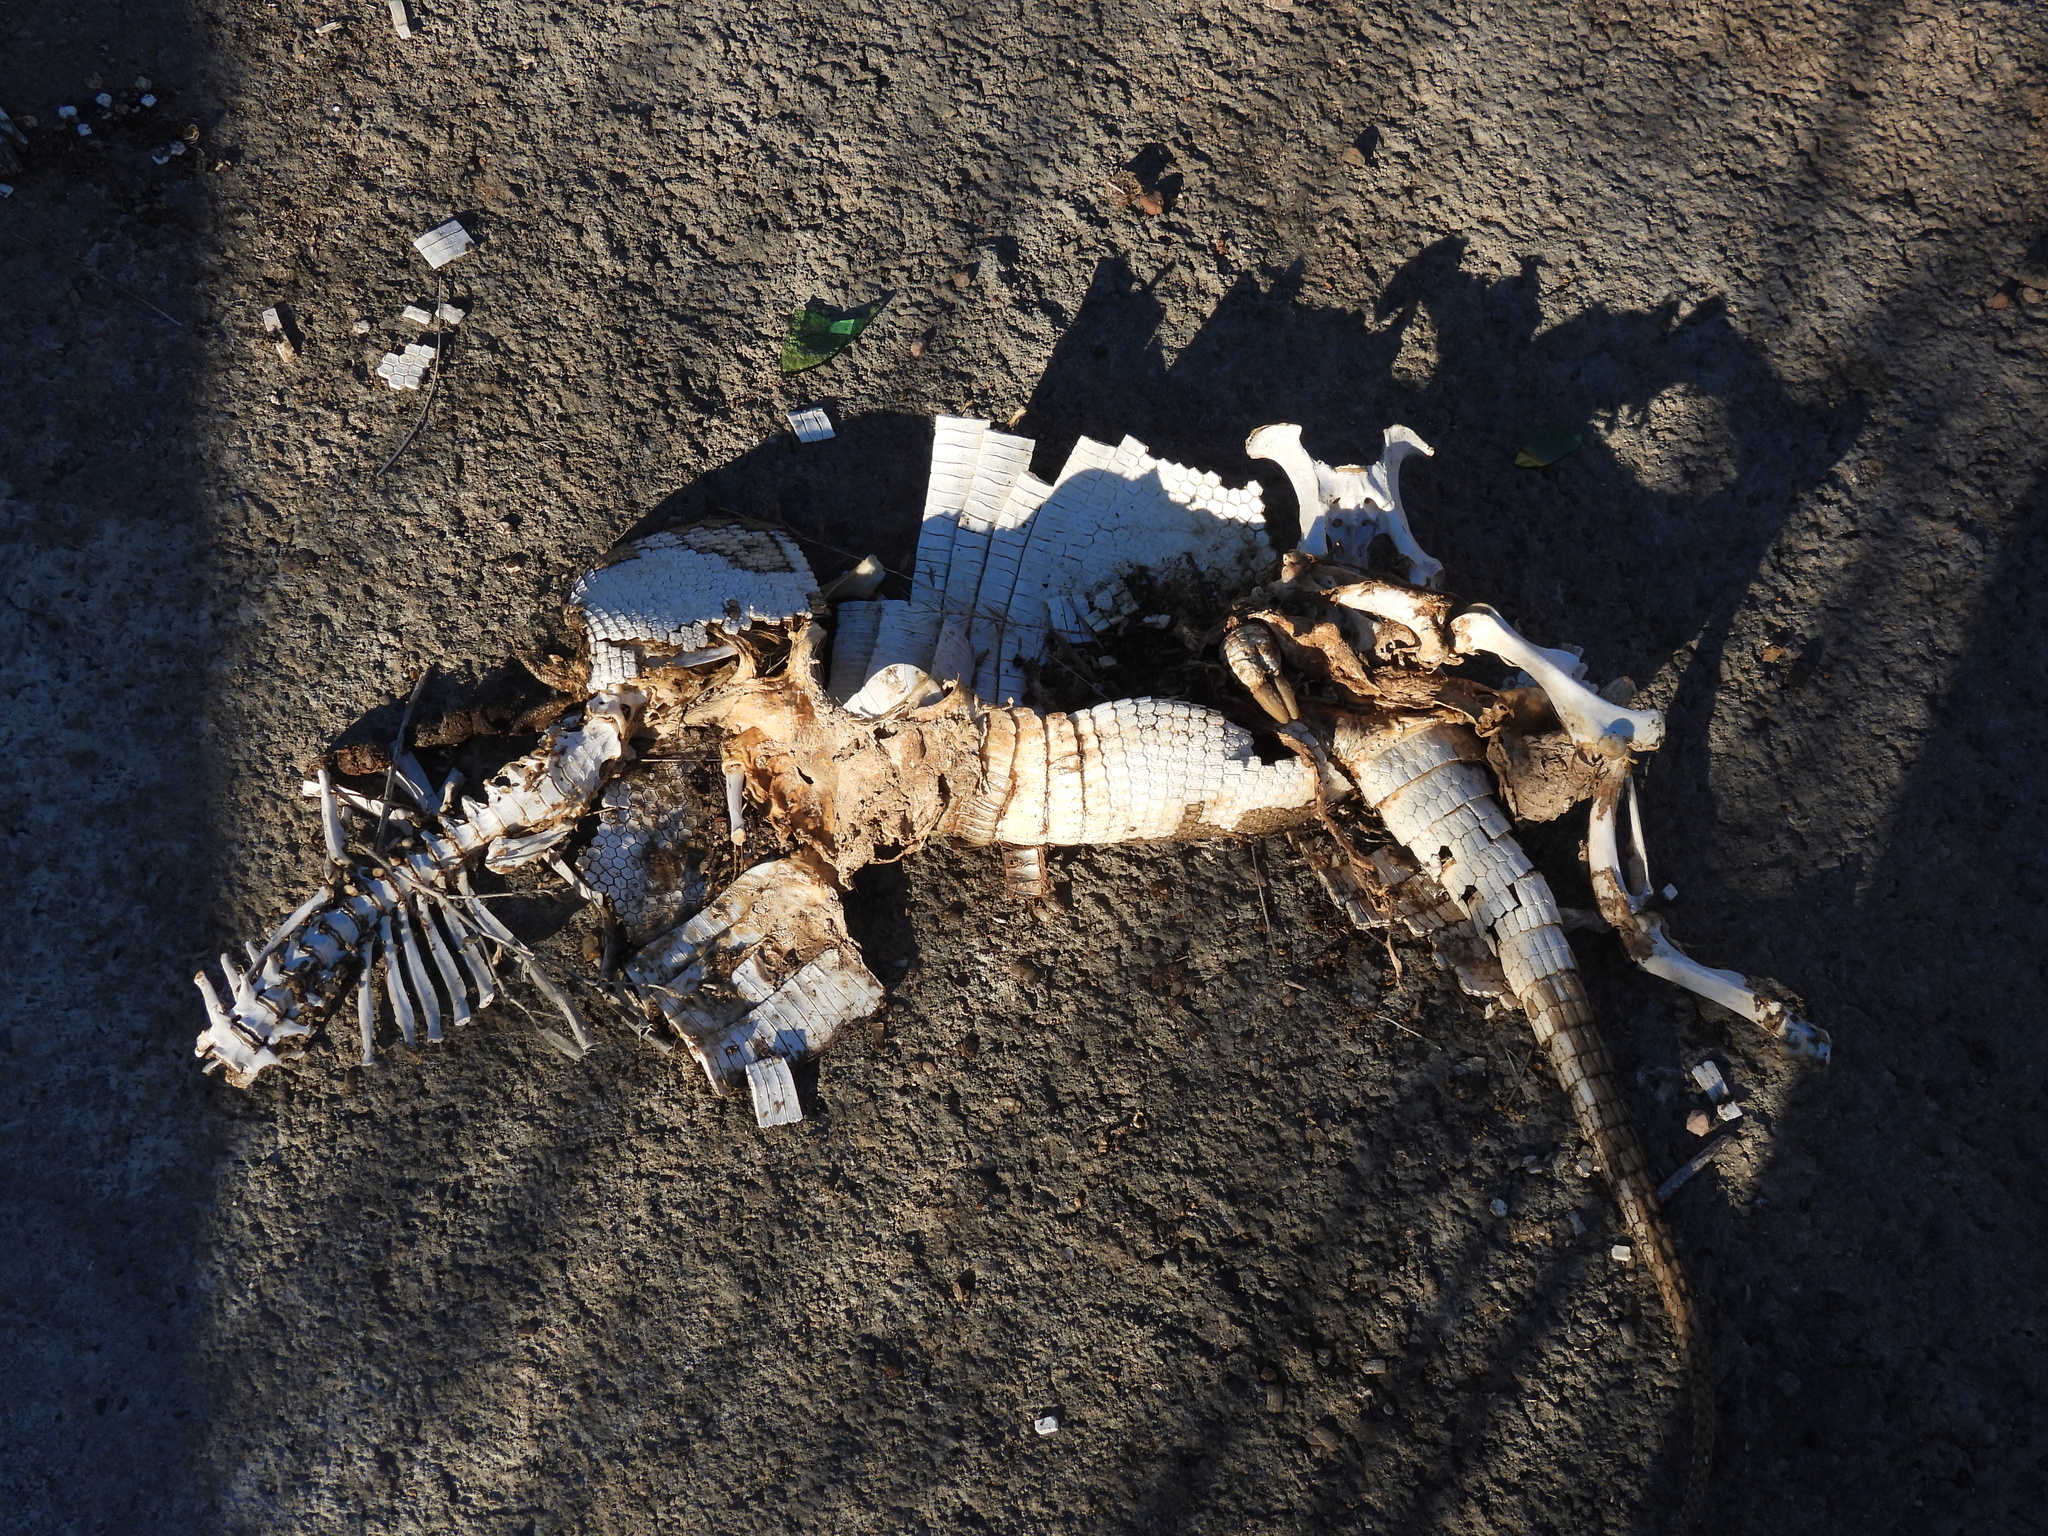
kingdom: Animalia
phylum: Chordata
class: Mammalia
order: Cingulata
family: Dasypodidae
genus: Dasypus
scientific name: Dasypus novemcinctus
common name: Nine-banded armadillo
